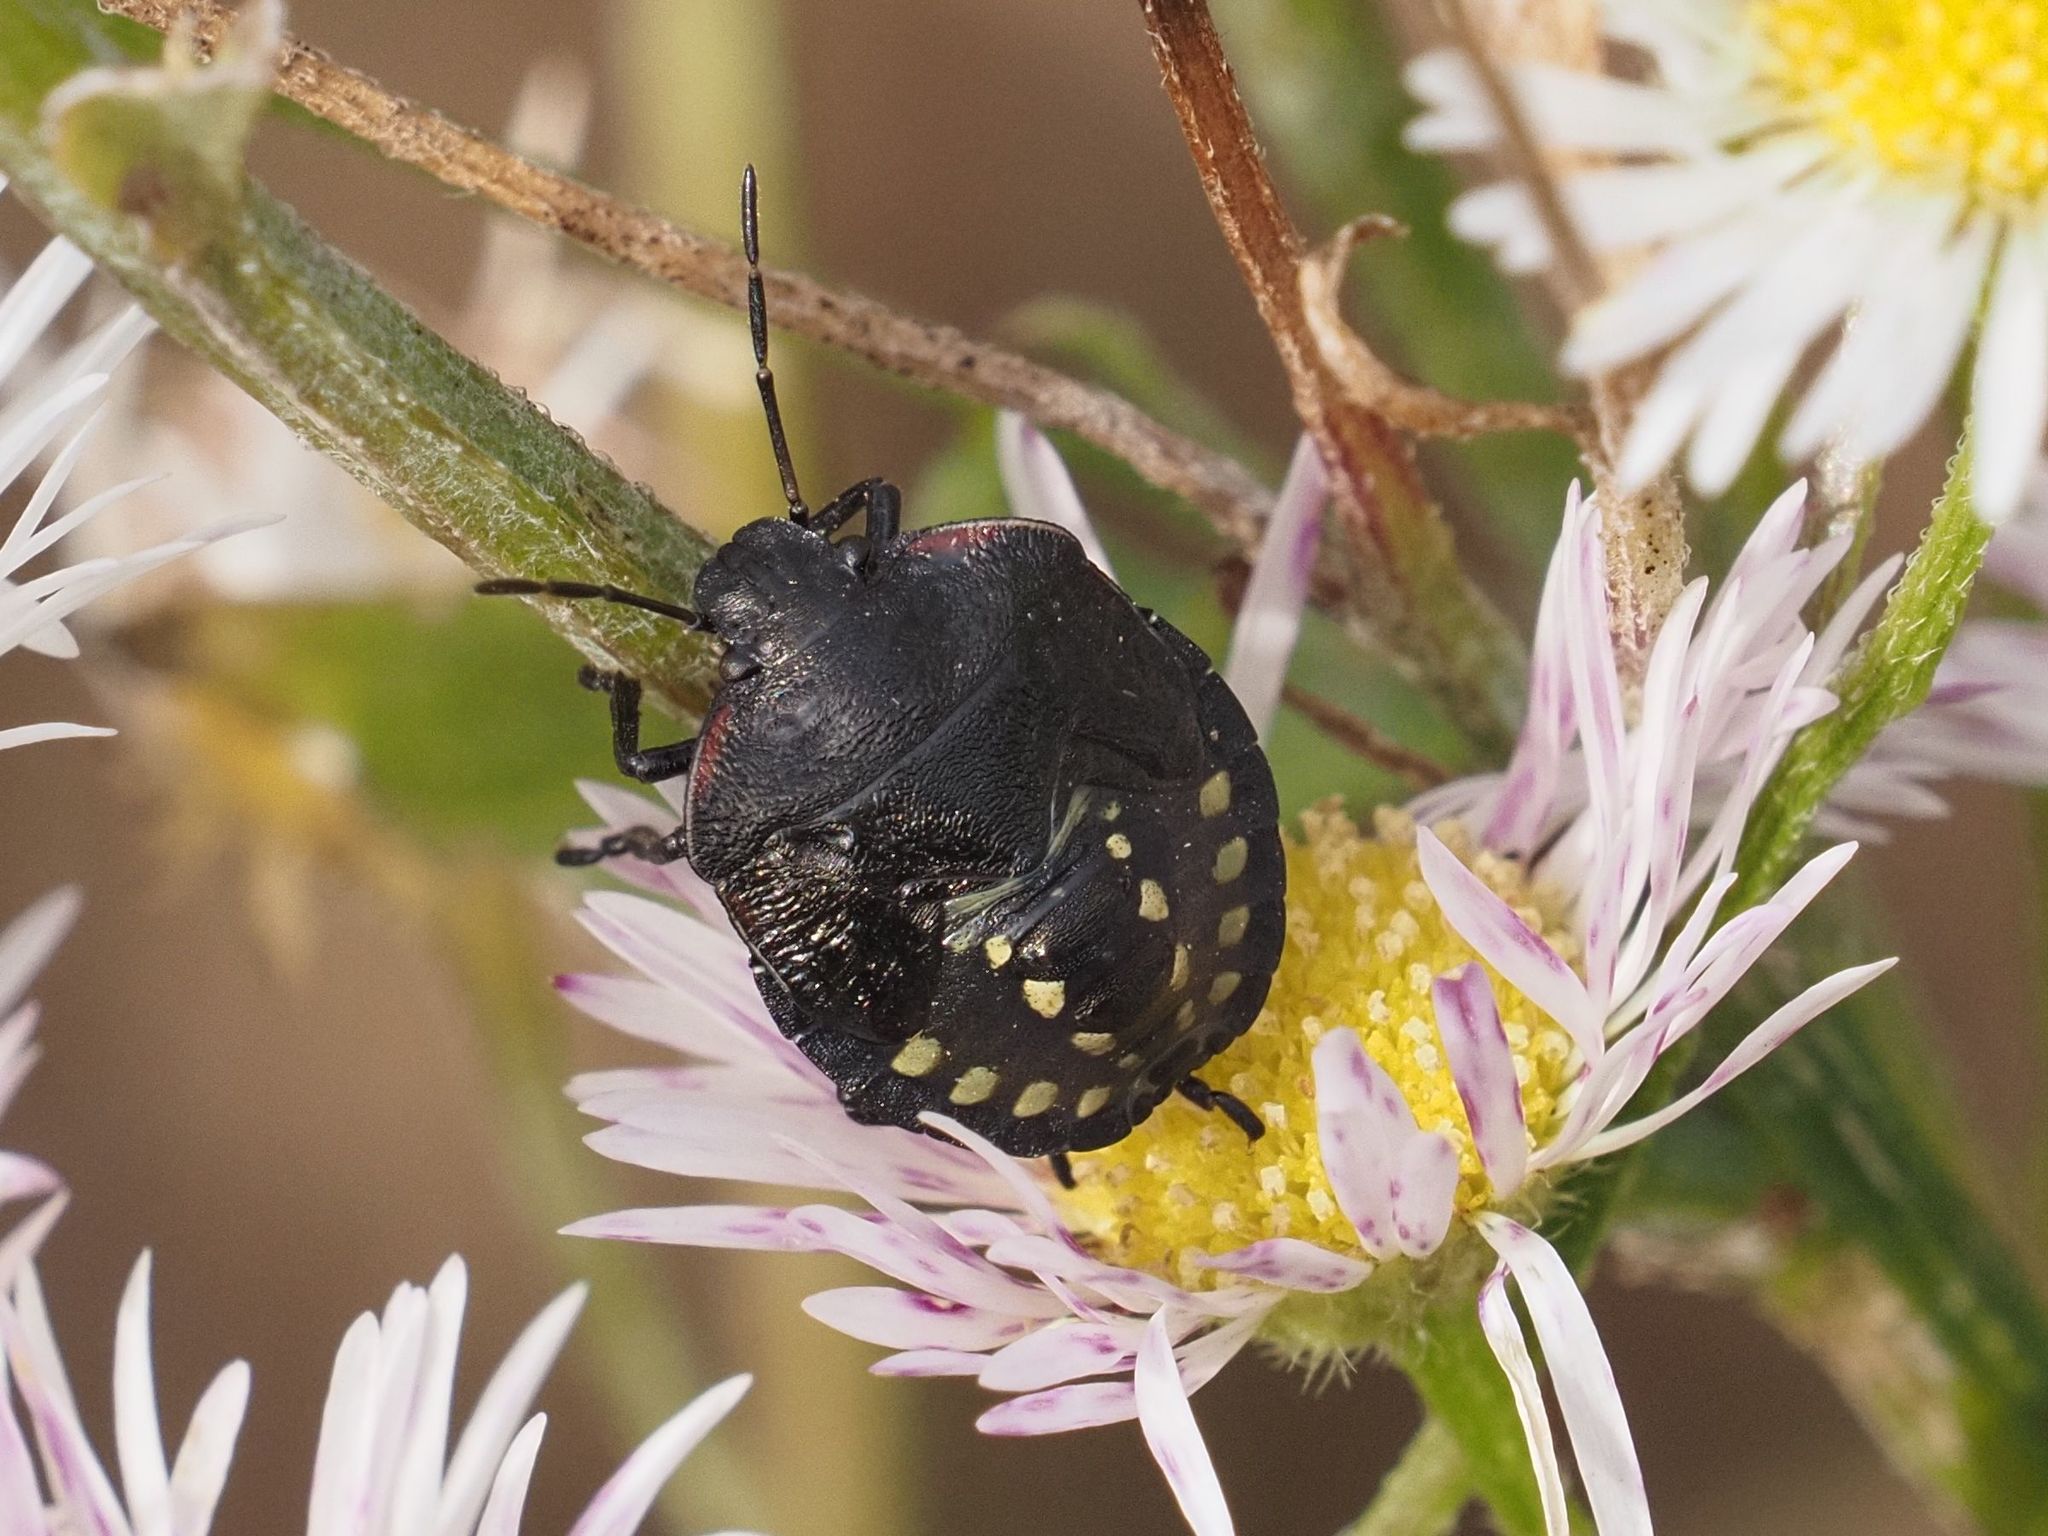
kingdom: Animalia
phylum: Arthropoda
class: Insecta
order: Hemiptera
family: Pentatomidae
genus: Nezara
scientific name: Nezara viridula
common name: Southern green stink bug
